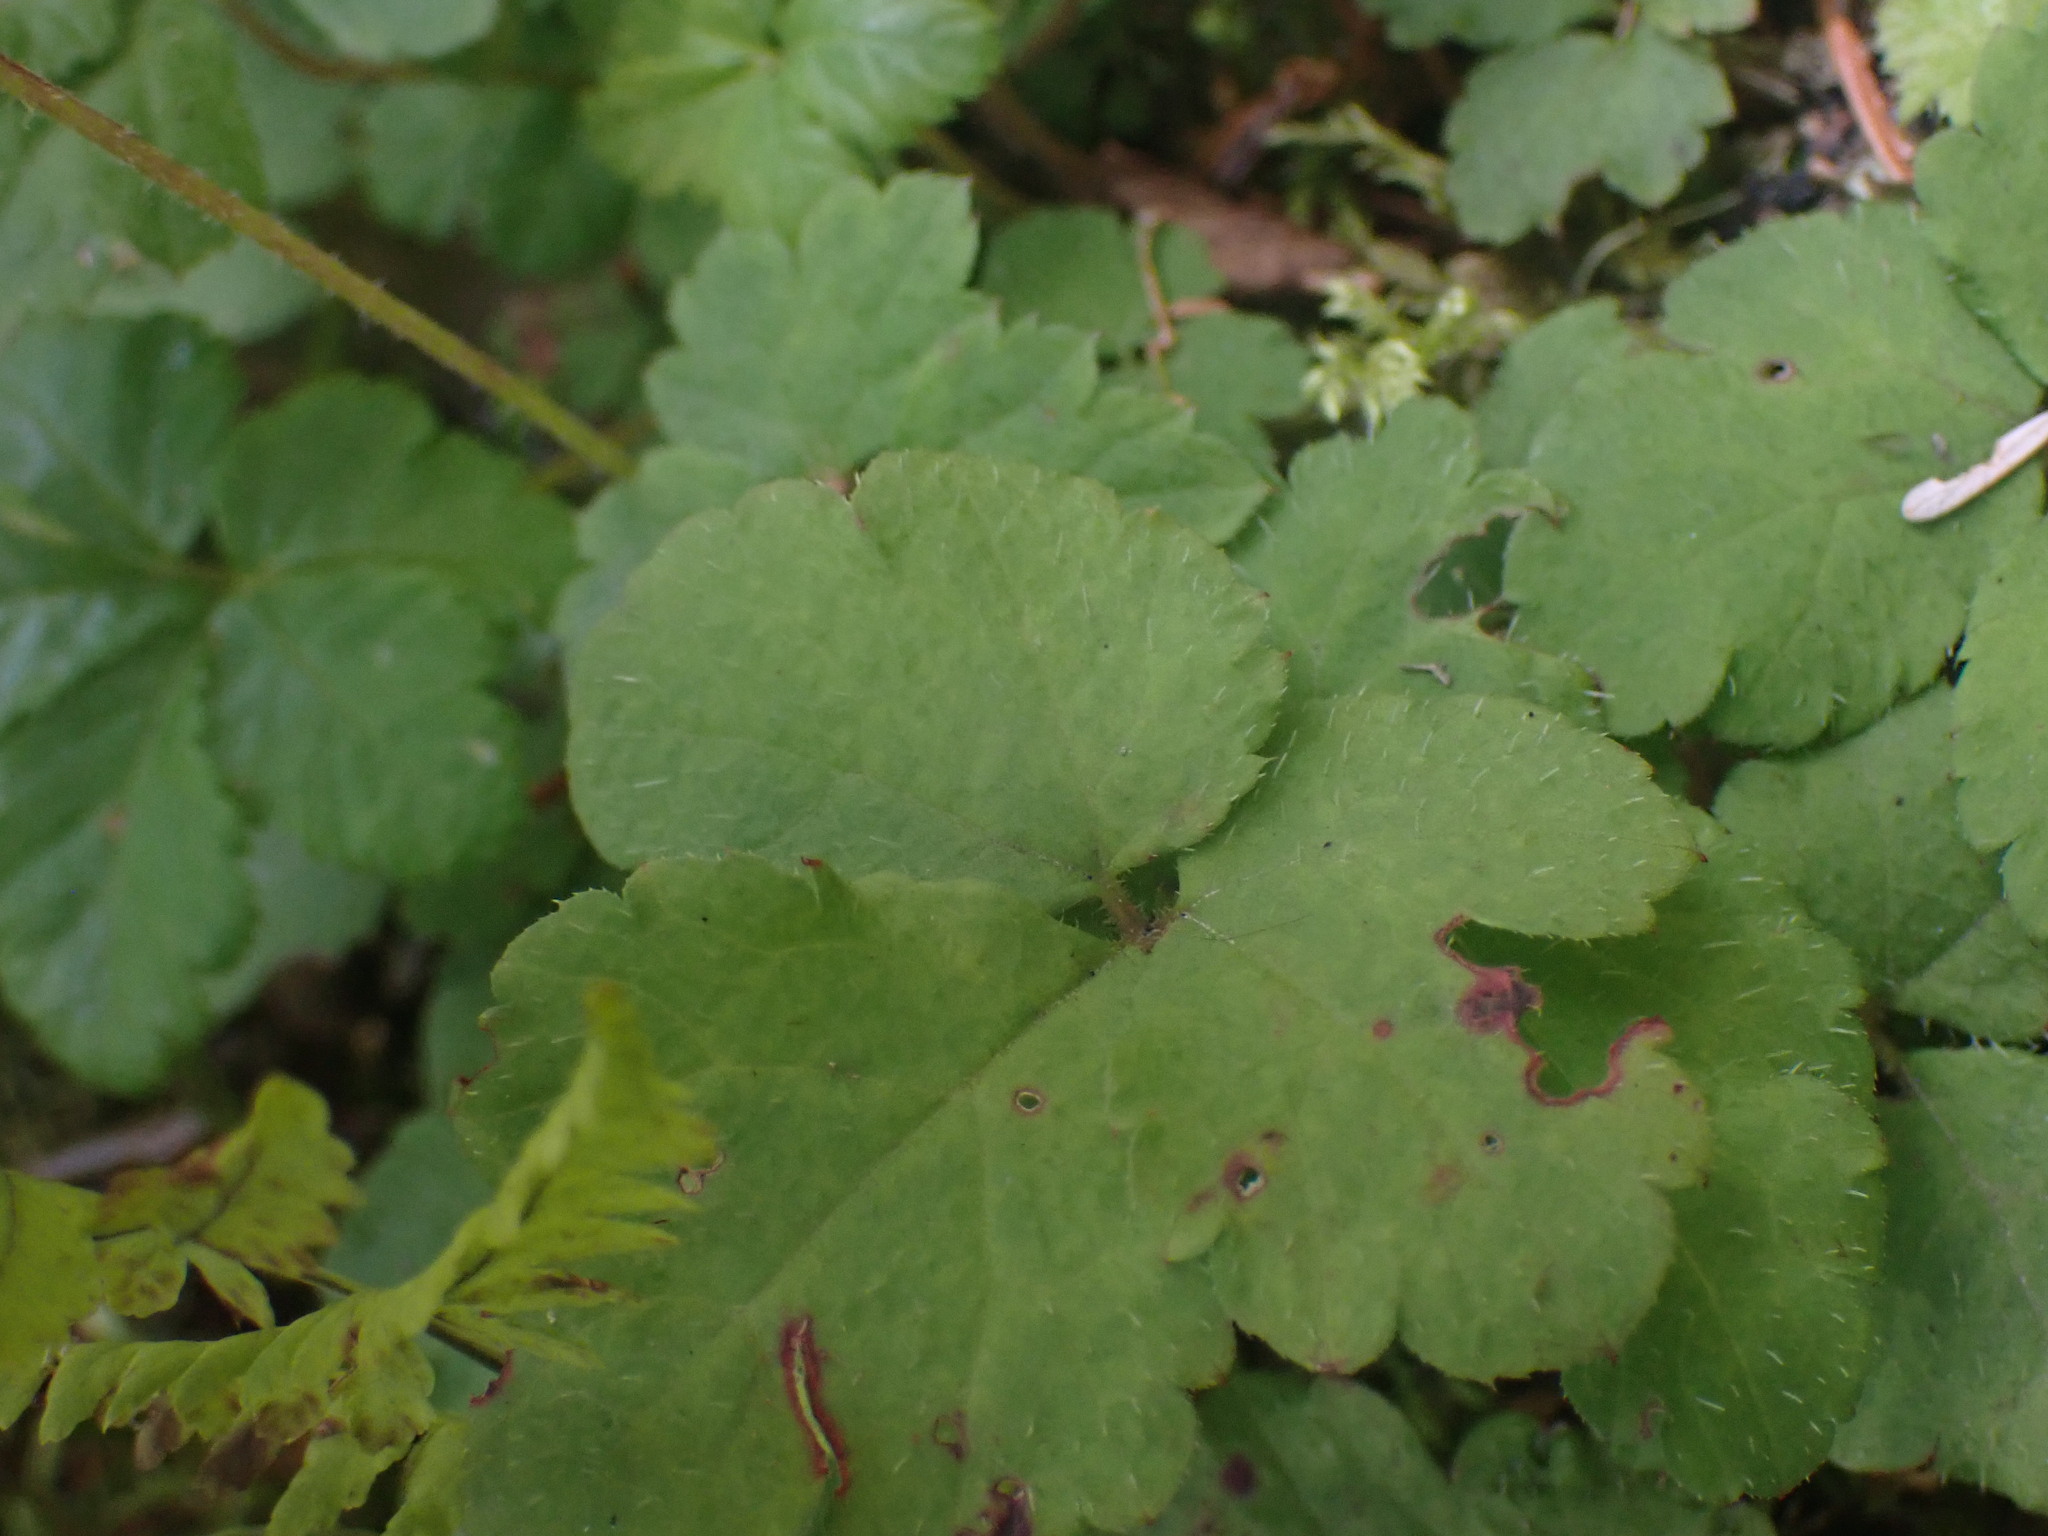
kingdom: Plantae
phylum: Tracheophyta
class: Magnoliopsida
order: Saxifragales
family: Saxifragaceae
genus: Tiarella
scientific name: Tiarella trifoliata
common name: Sugar-scoop
